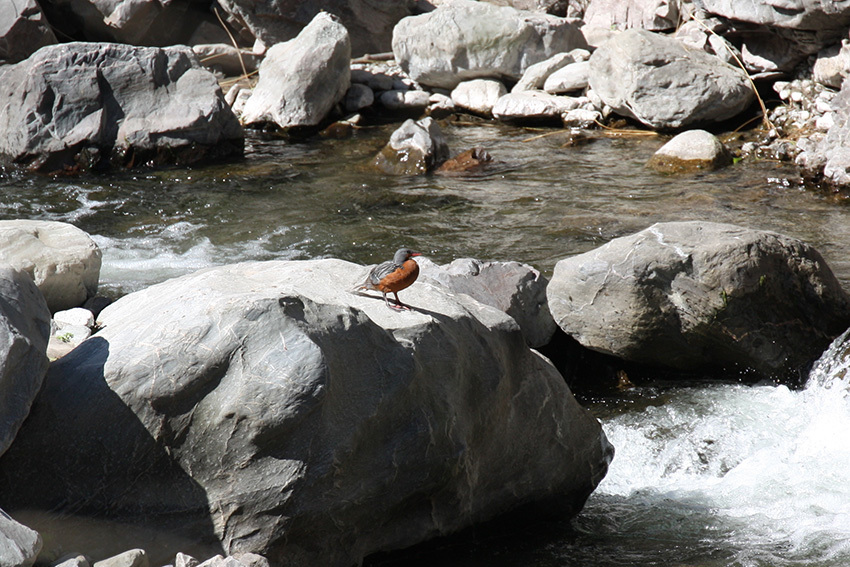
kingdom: Animalia
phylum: Chordata
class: Aves
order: Anseriformes
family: Anatidae
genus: Merganetta
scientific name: Merganetta armata
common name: Torrent duck
